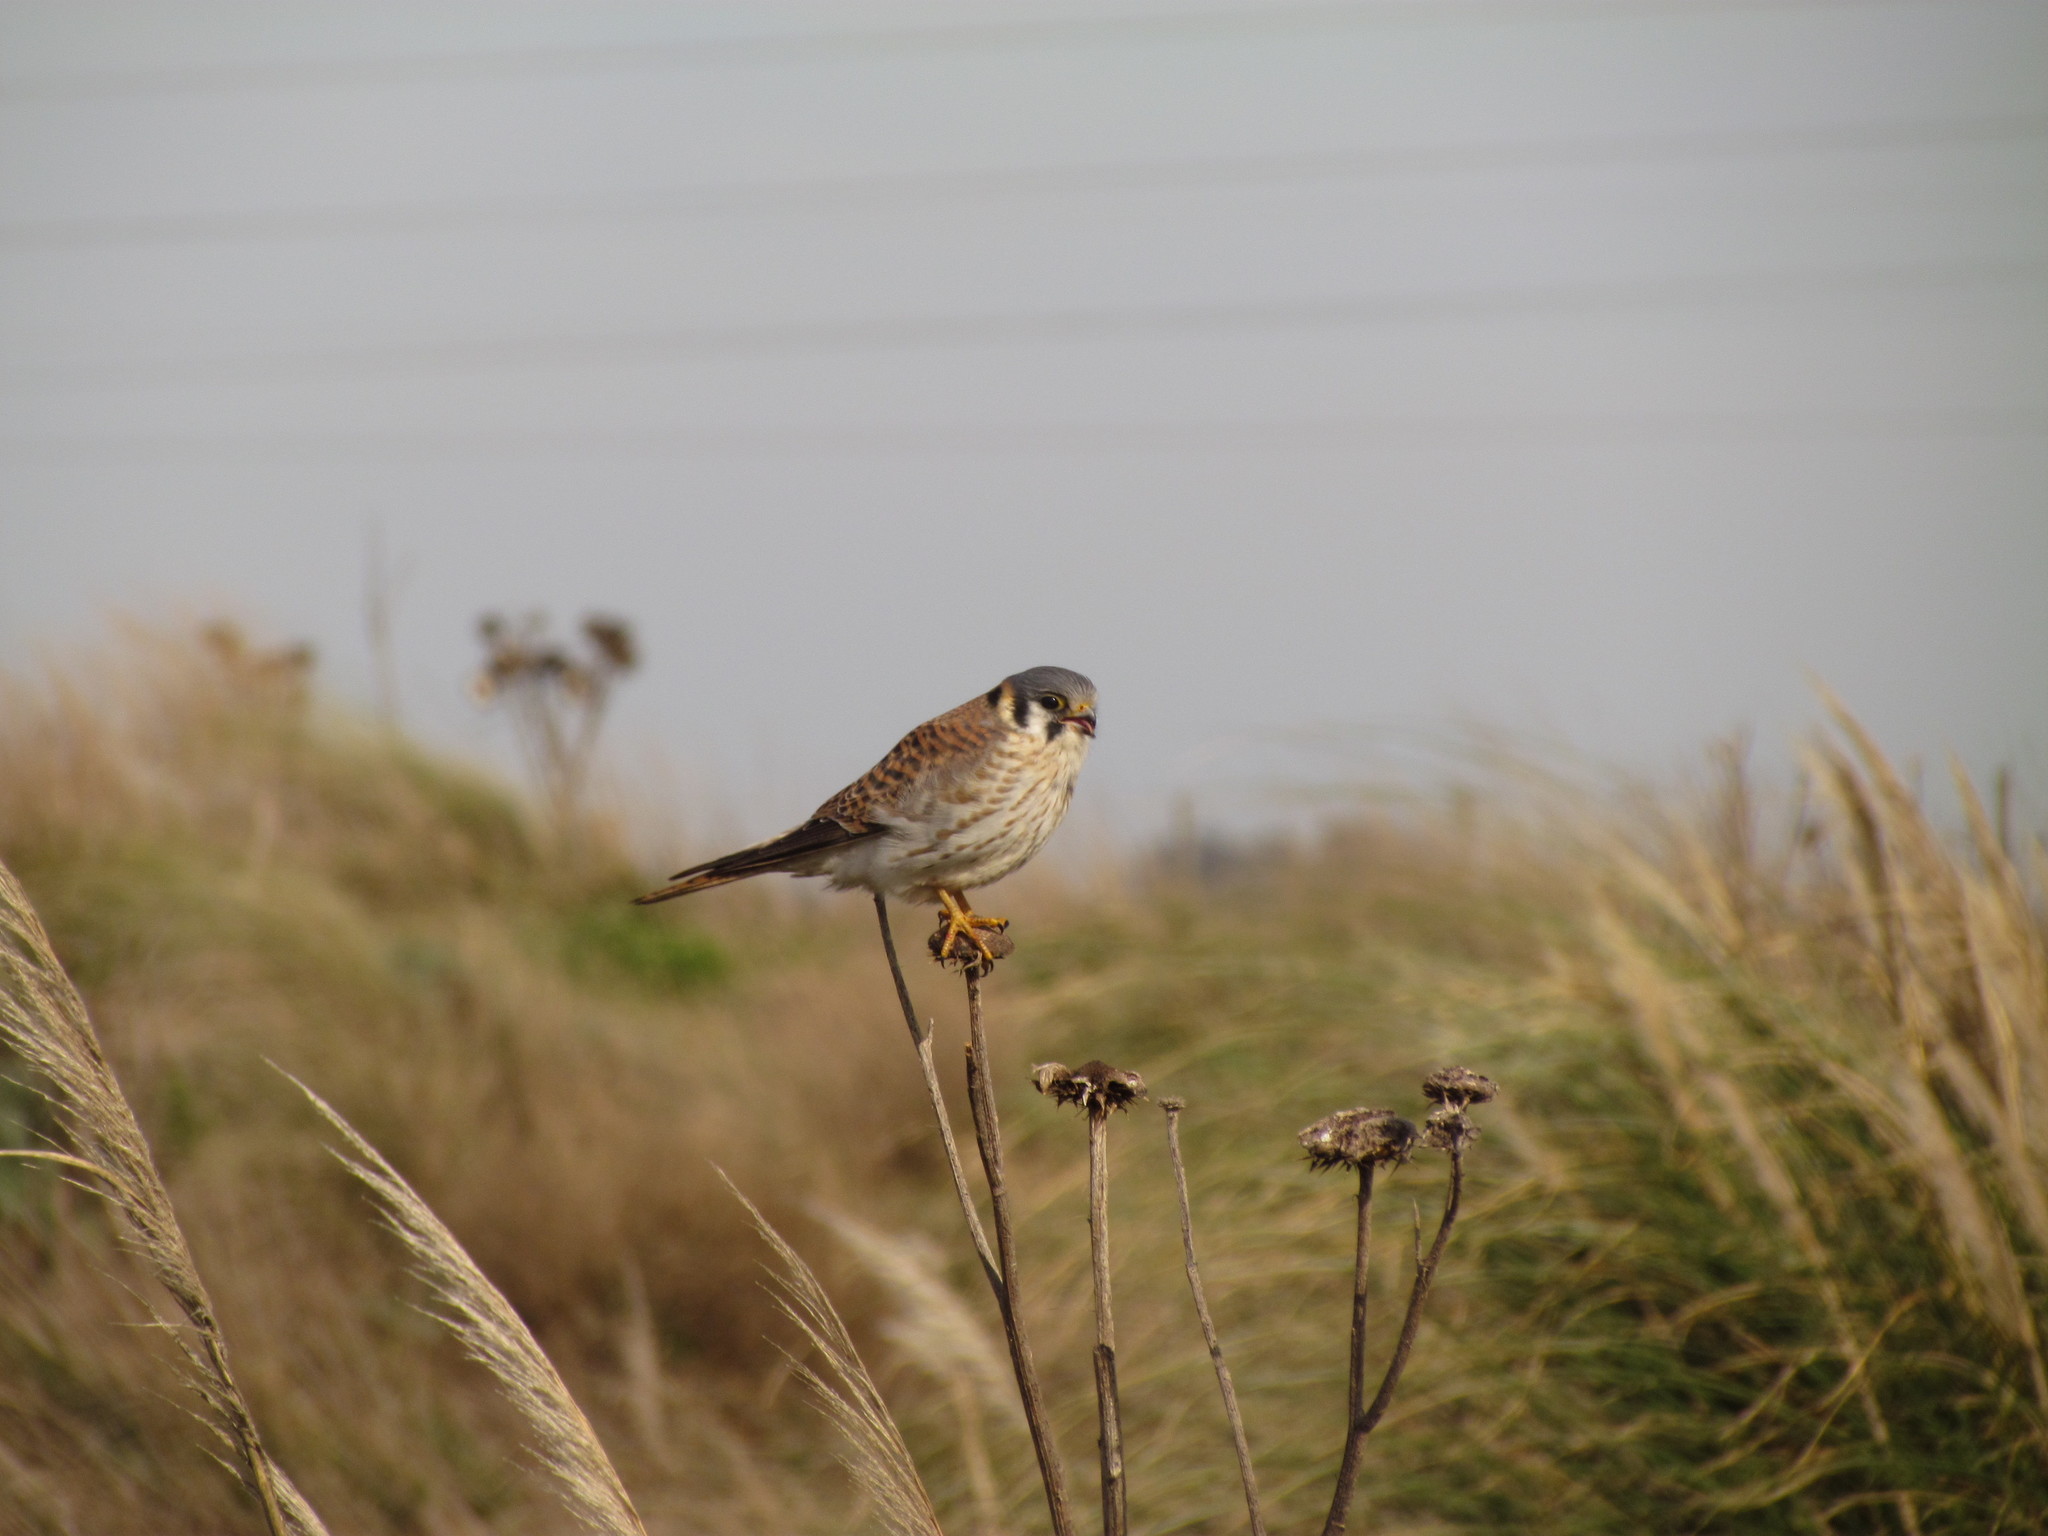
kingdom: Animalia
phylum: Chordata
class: Aves
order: Falconiformes
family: Falconidae
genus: Falco
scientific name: Falco sparverius
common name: American kestrel
